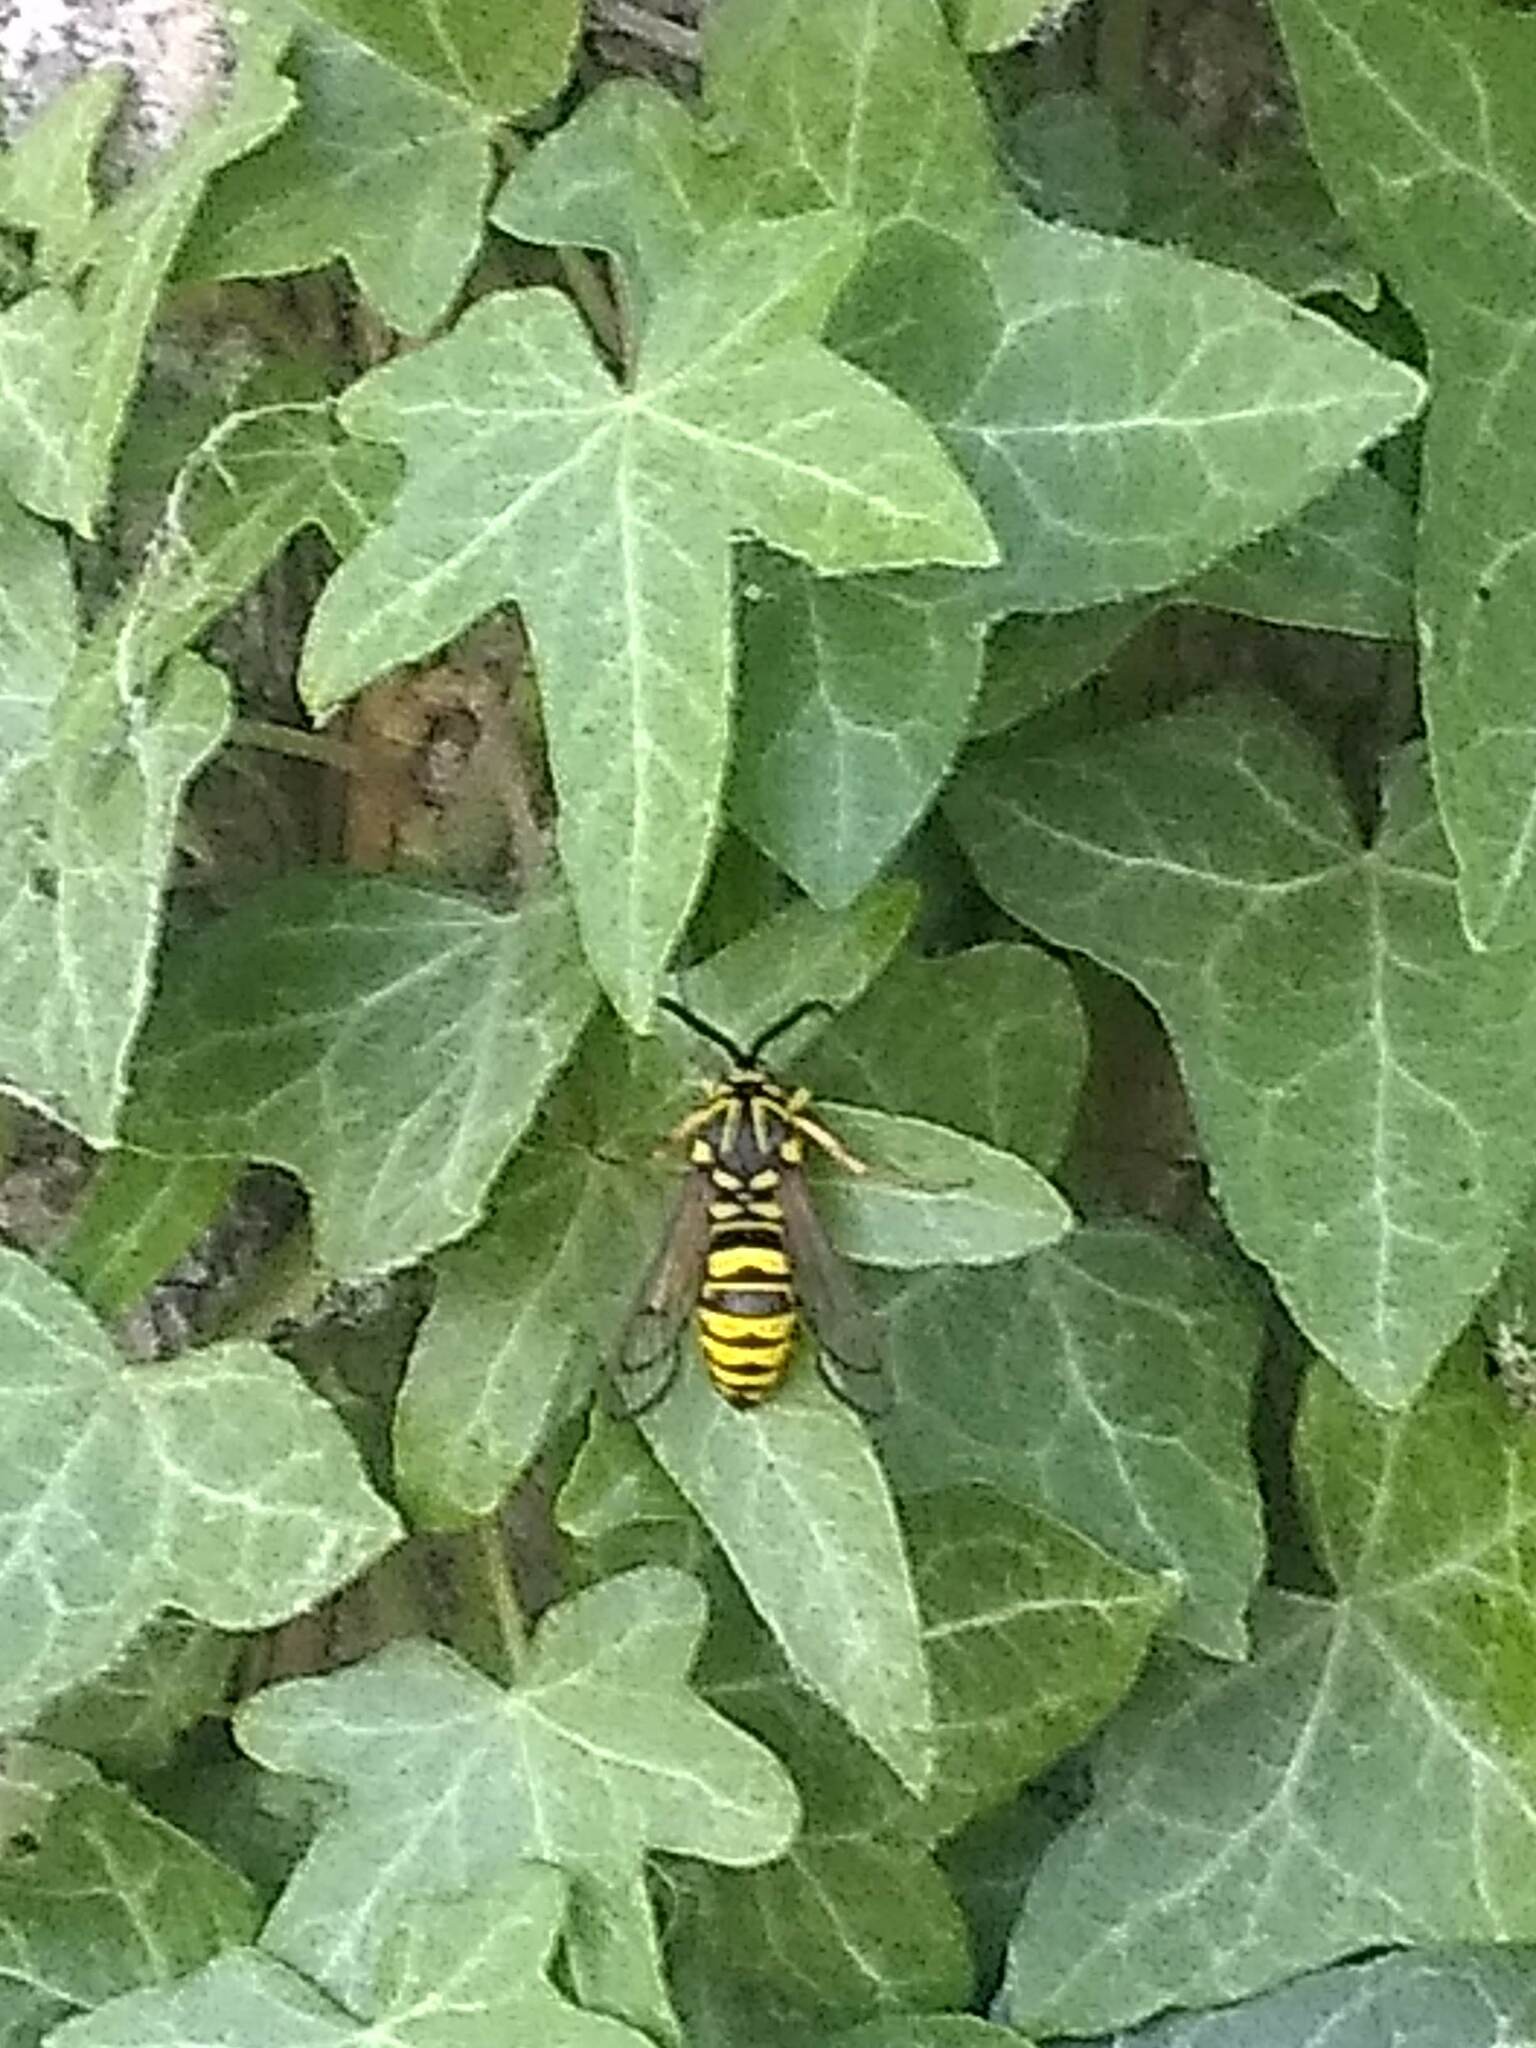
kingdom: Animalia
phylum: Arthropoda
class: Insecta
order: Lepidoptera
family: Sesiidae
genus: Sesia
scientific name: Sesia tibiale
